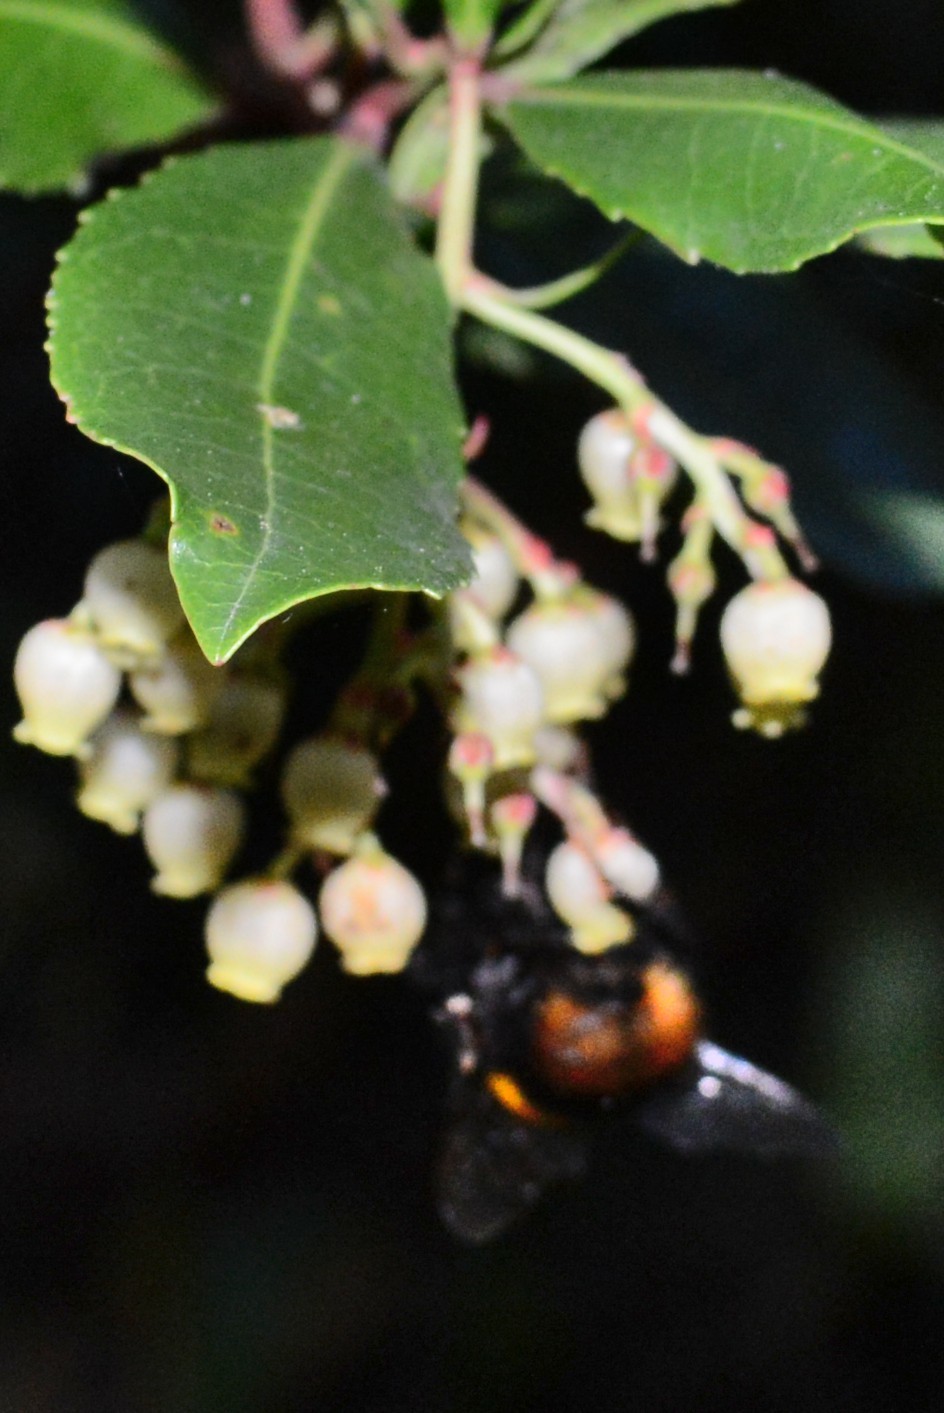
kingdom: Animalia
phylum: Arthropoda
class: Insecta
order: Hymenoptera
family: Apidae
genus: Bombus
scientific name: Bombus terrestris
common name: Buff-tailed bumblebee
